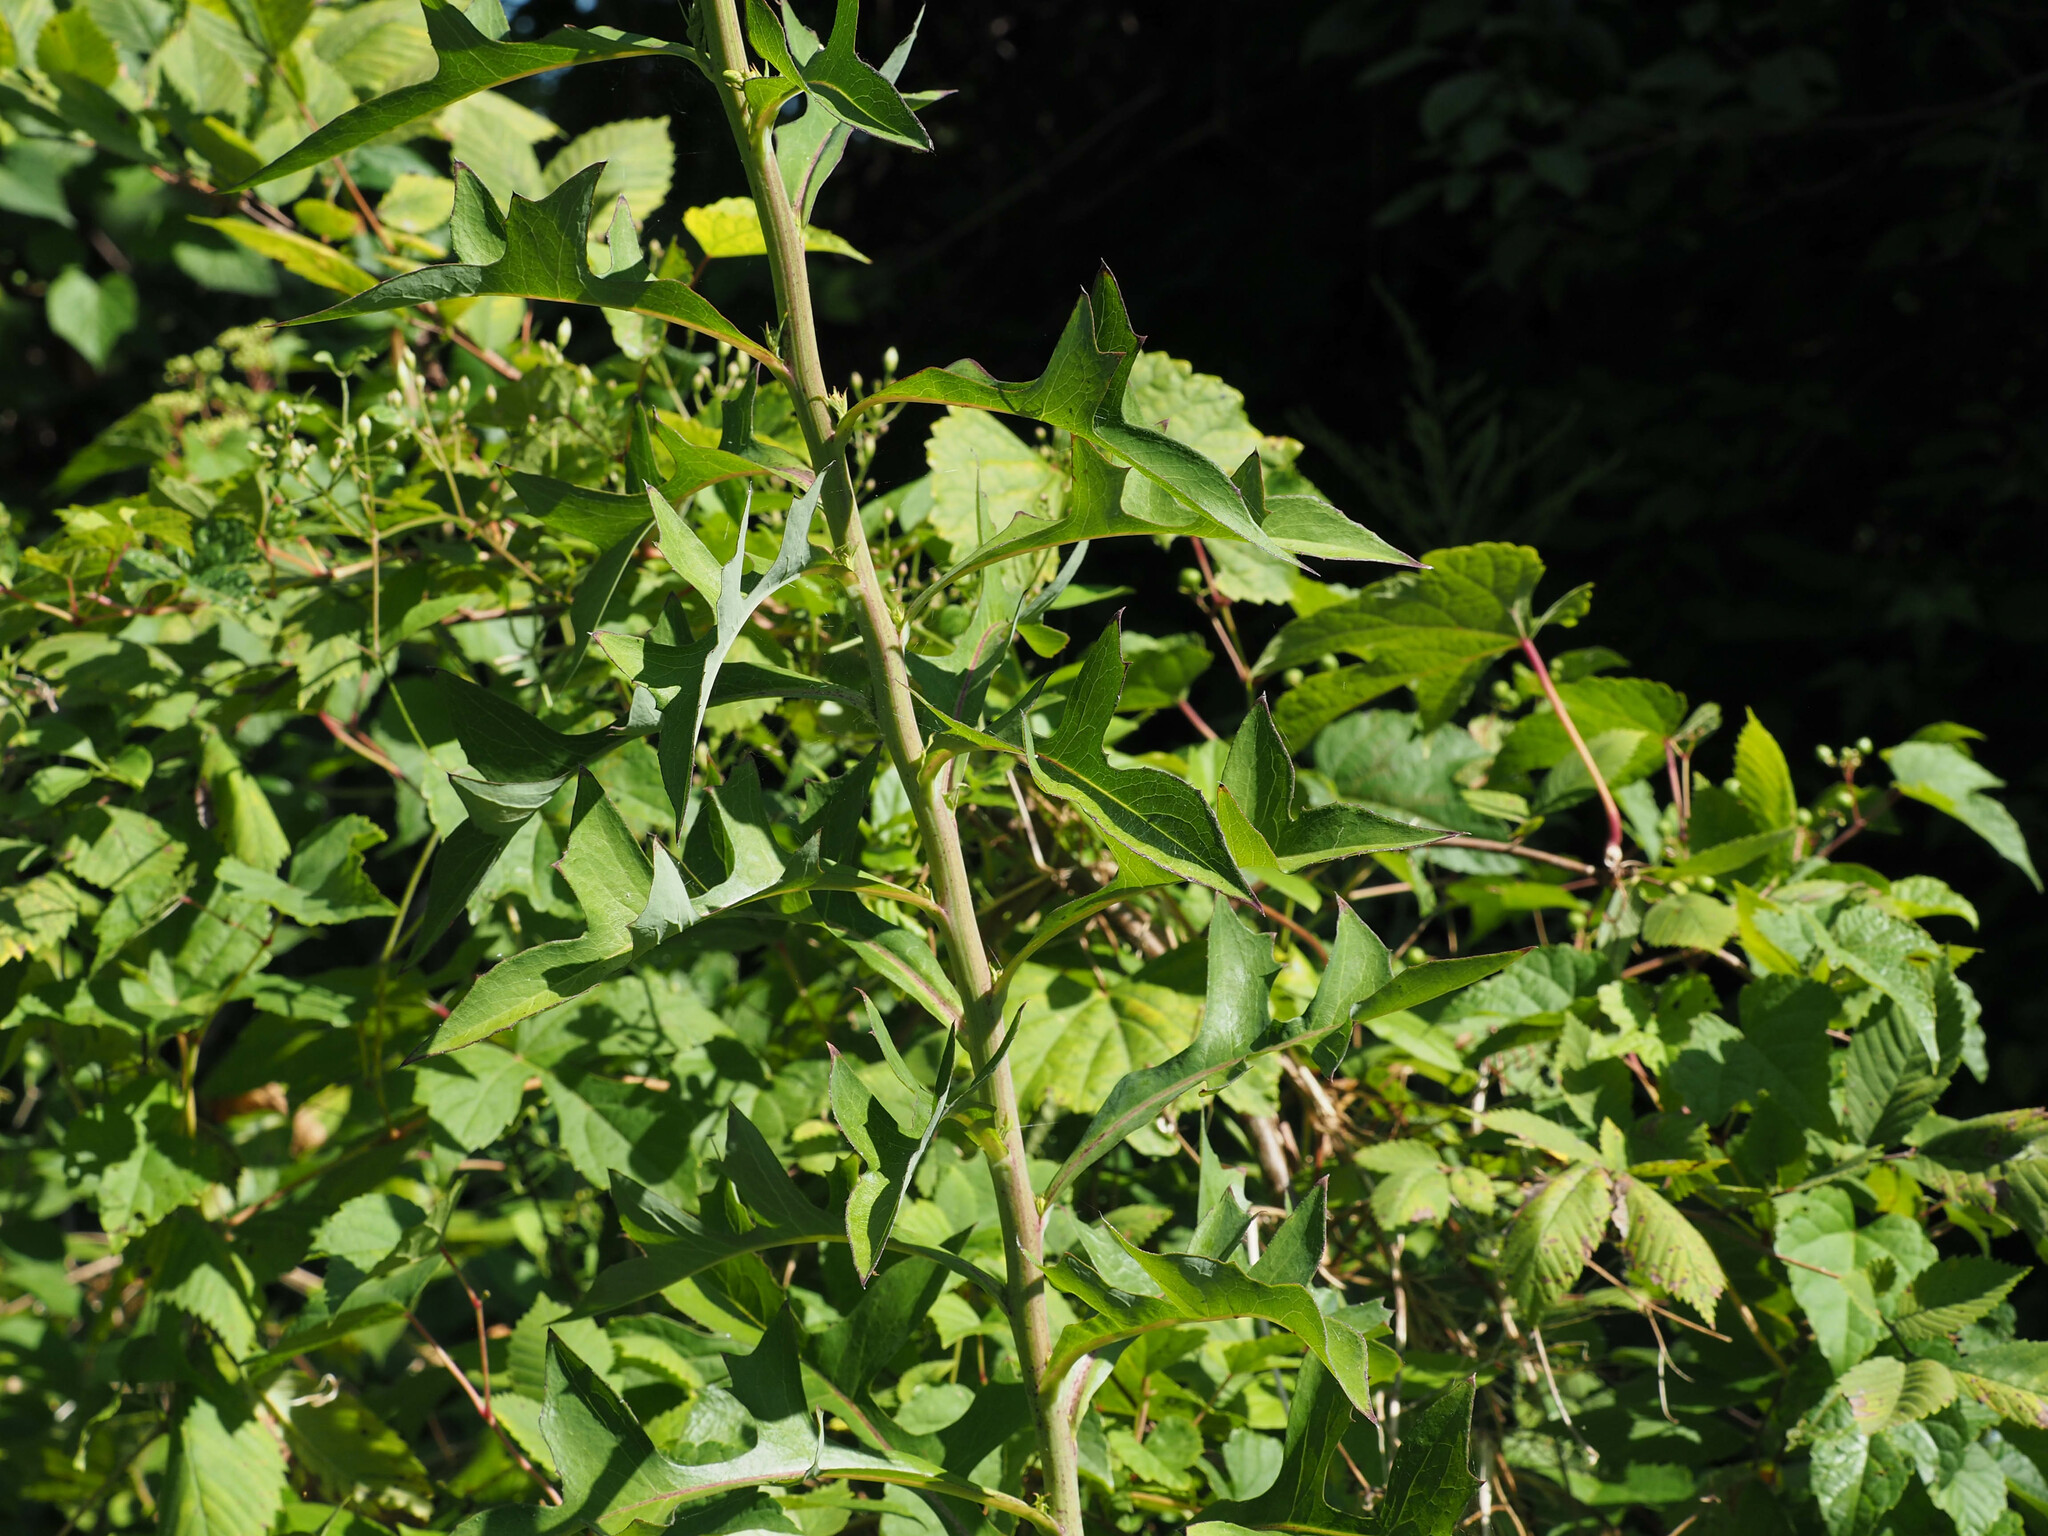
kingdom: Plantae
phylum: Tracheophyta
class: Magnoliopsida
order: Asterales
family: Asteraceae
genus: Lactuca
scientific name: Lactuca canadensis
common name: Canada lettuce
